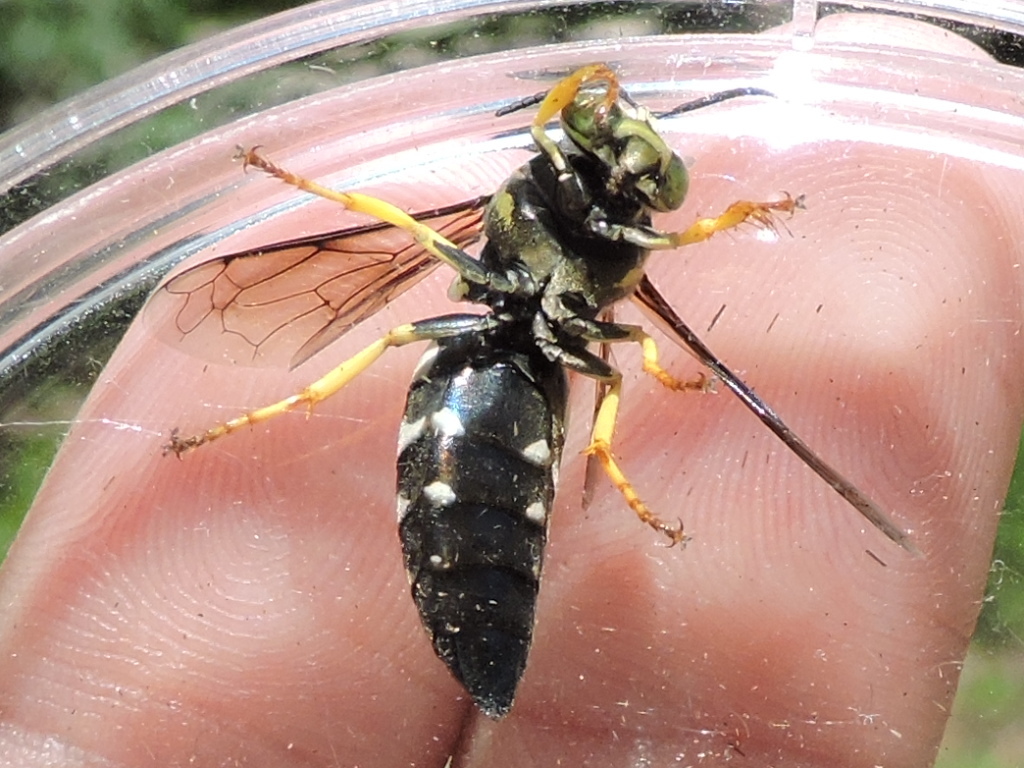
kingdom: Animalia
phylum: Arthropoda
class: Insecta
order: Hymenoptera
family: Crabronidae
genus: Bicyrtes
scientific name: Bicyrtes quadrifasciatus
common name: Four-banded stink bug hunter wasp
